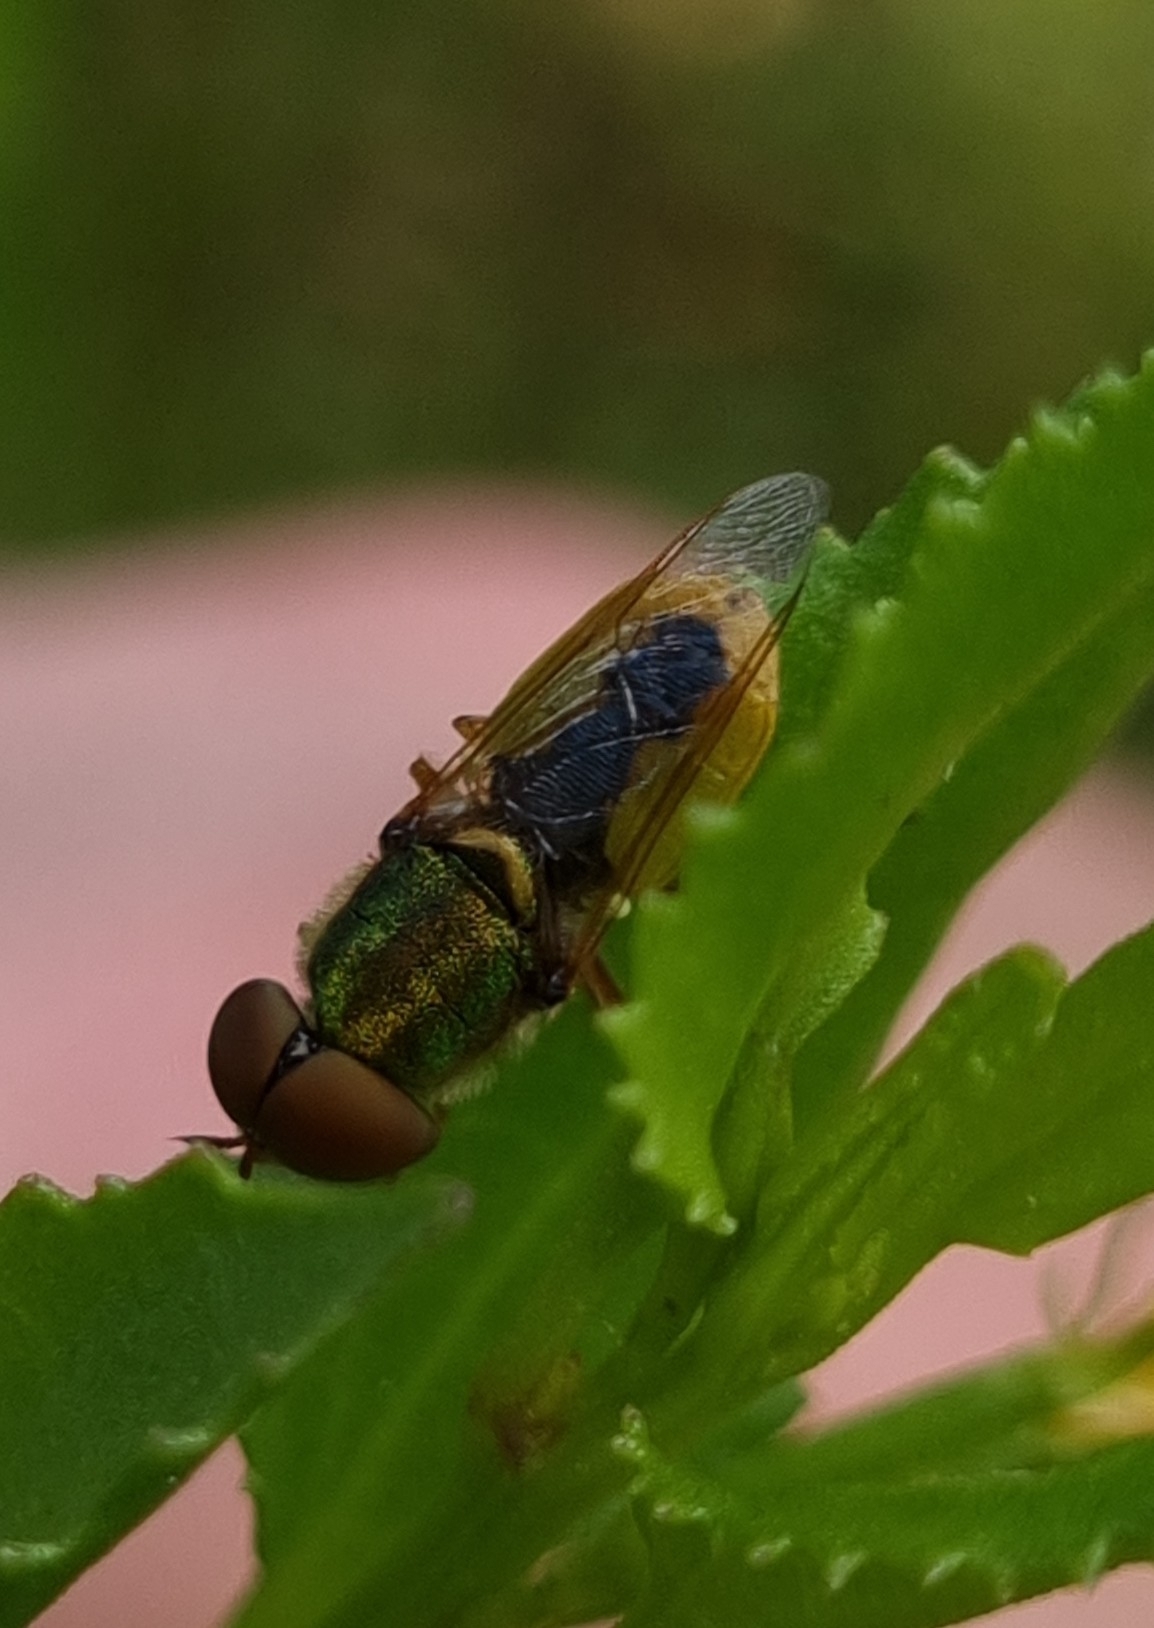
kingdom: Animalia
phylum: Arthropoda
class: Insecta
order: Diptera
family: Stratiomyidae
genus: Odontomyia
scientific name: Odontomyia decipiens
